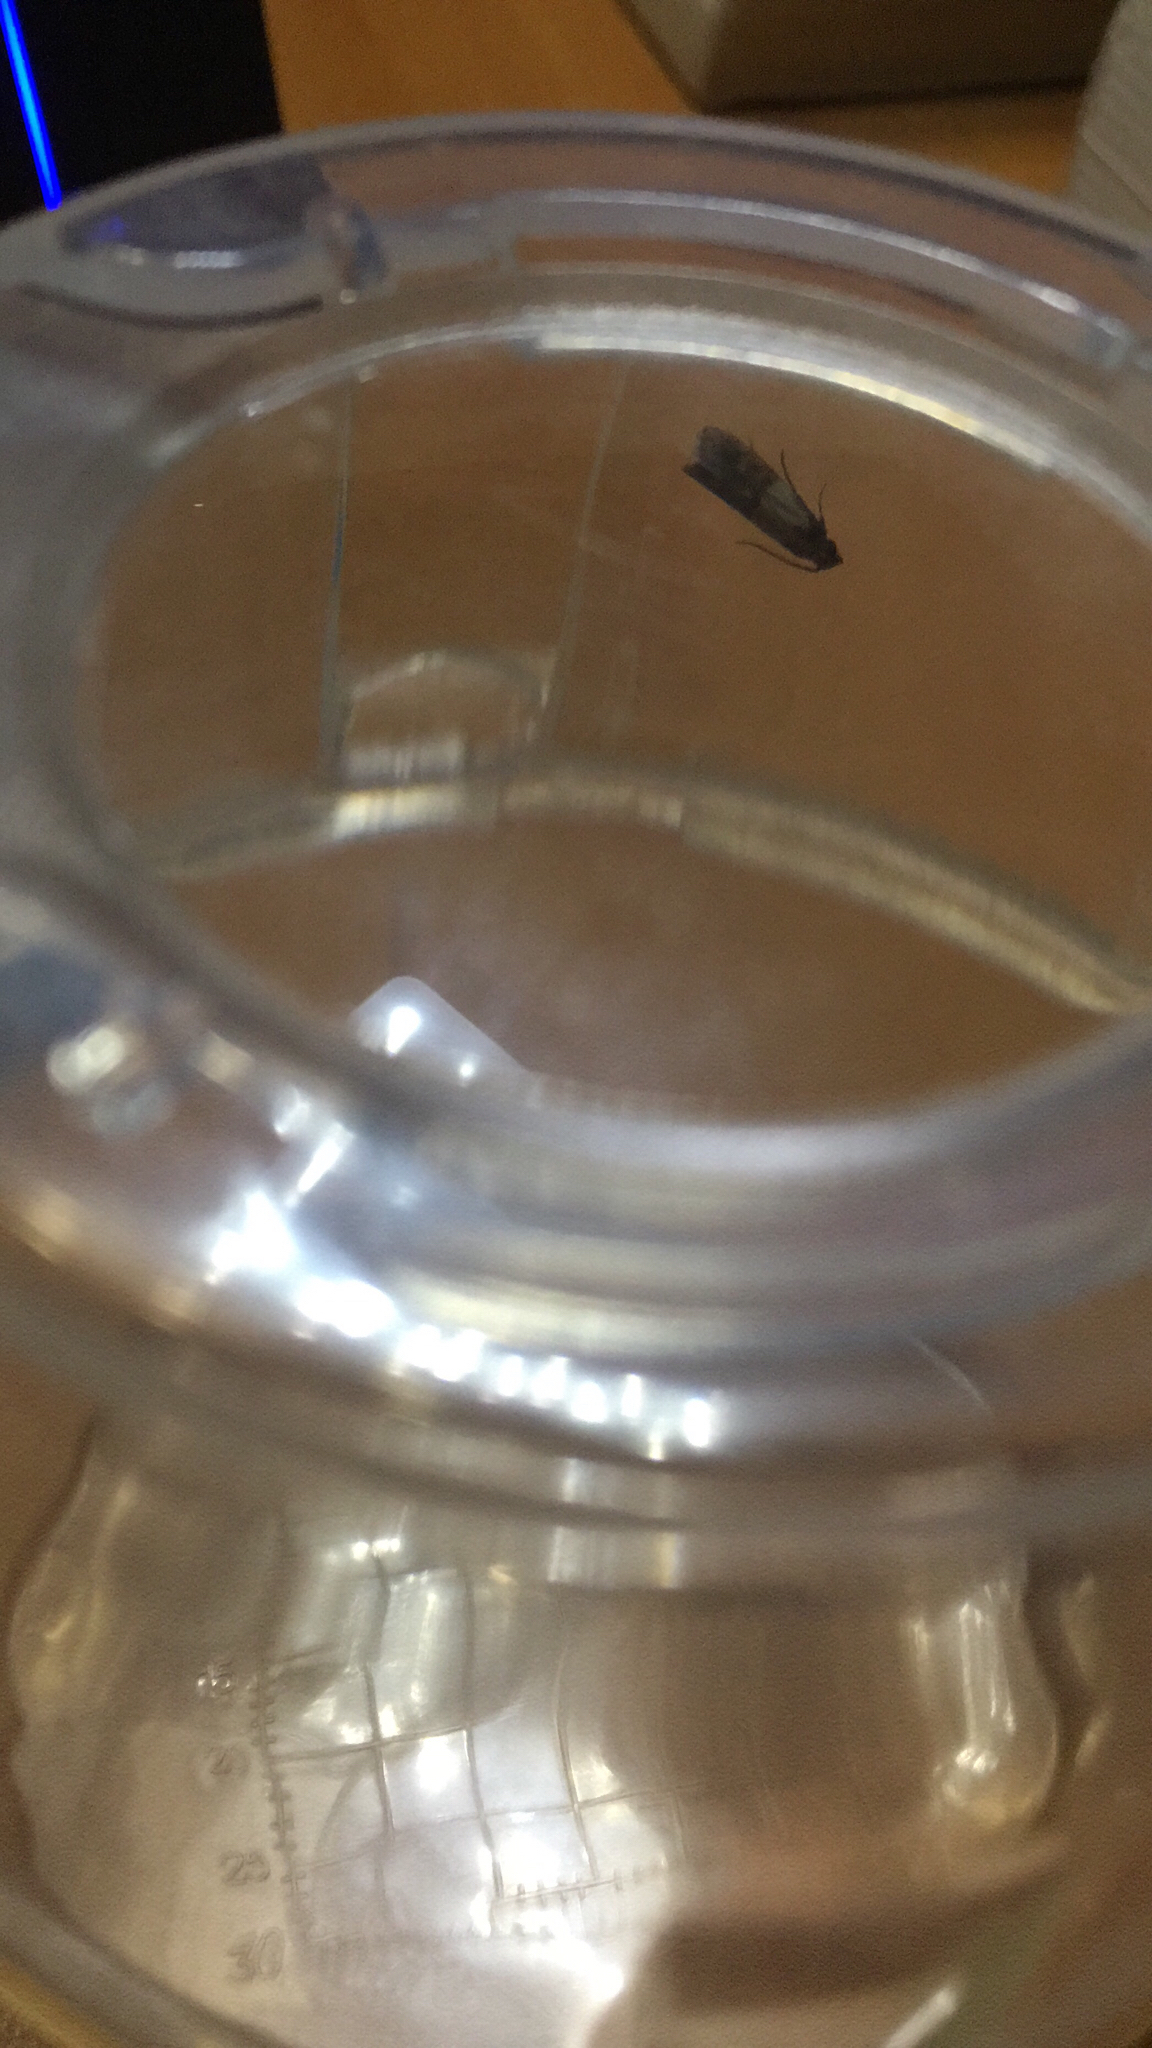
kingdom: Animalia
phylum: Arthropoda
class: Insecta
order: Lepidoptera
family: Pyralidae
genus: Plodia
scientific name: Plodia interpunctella
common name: Indian meal moth
